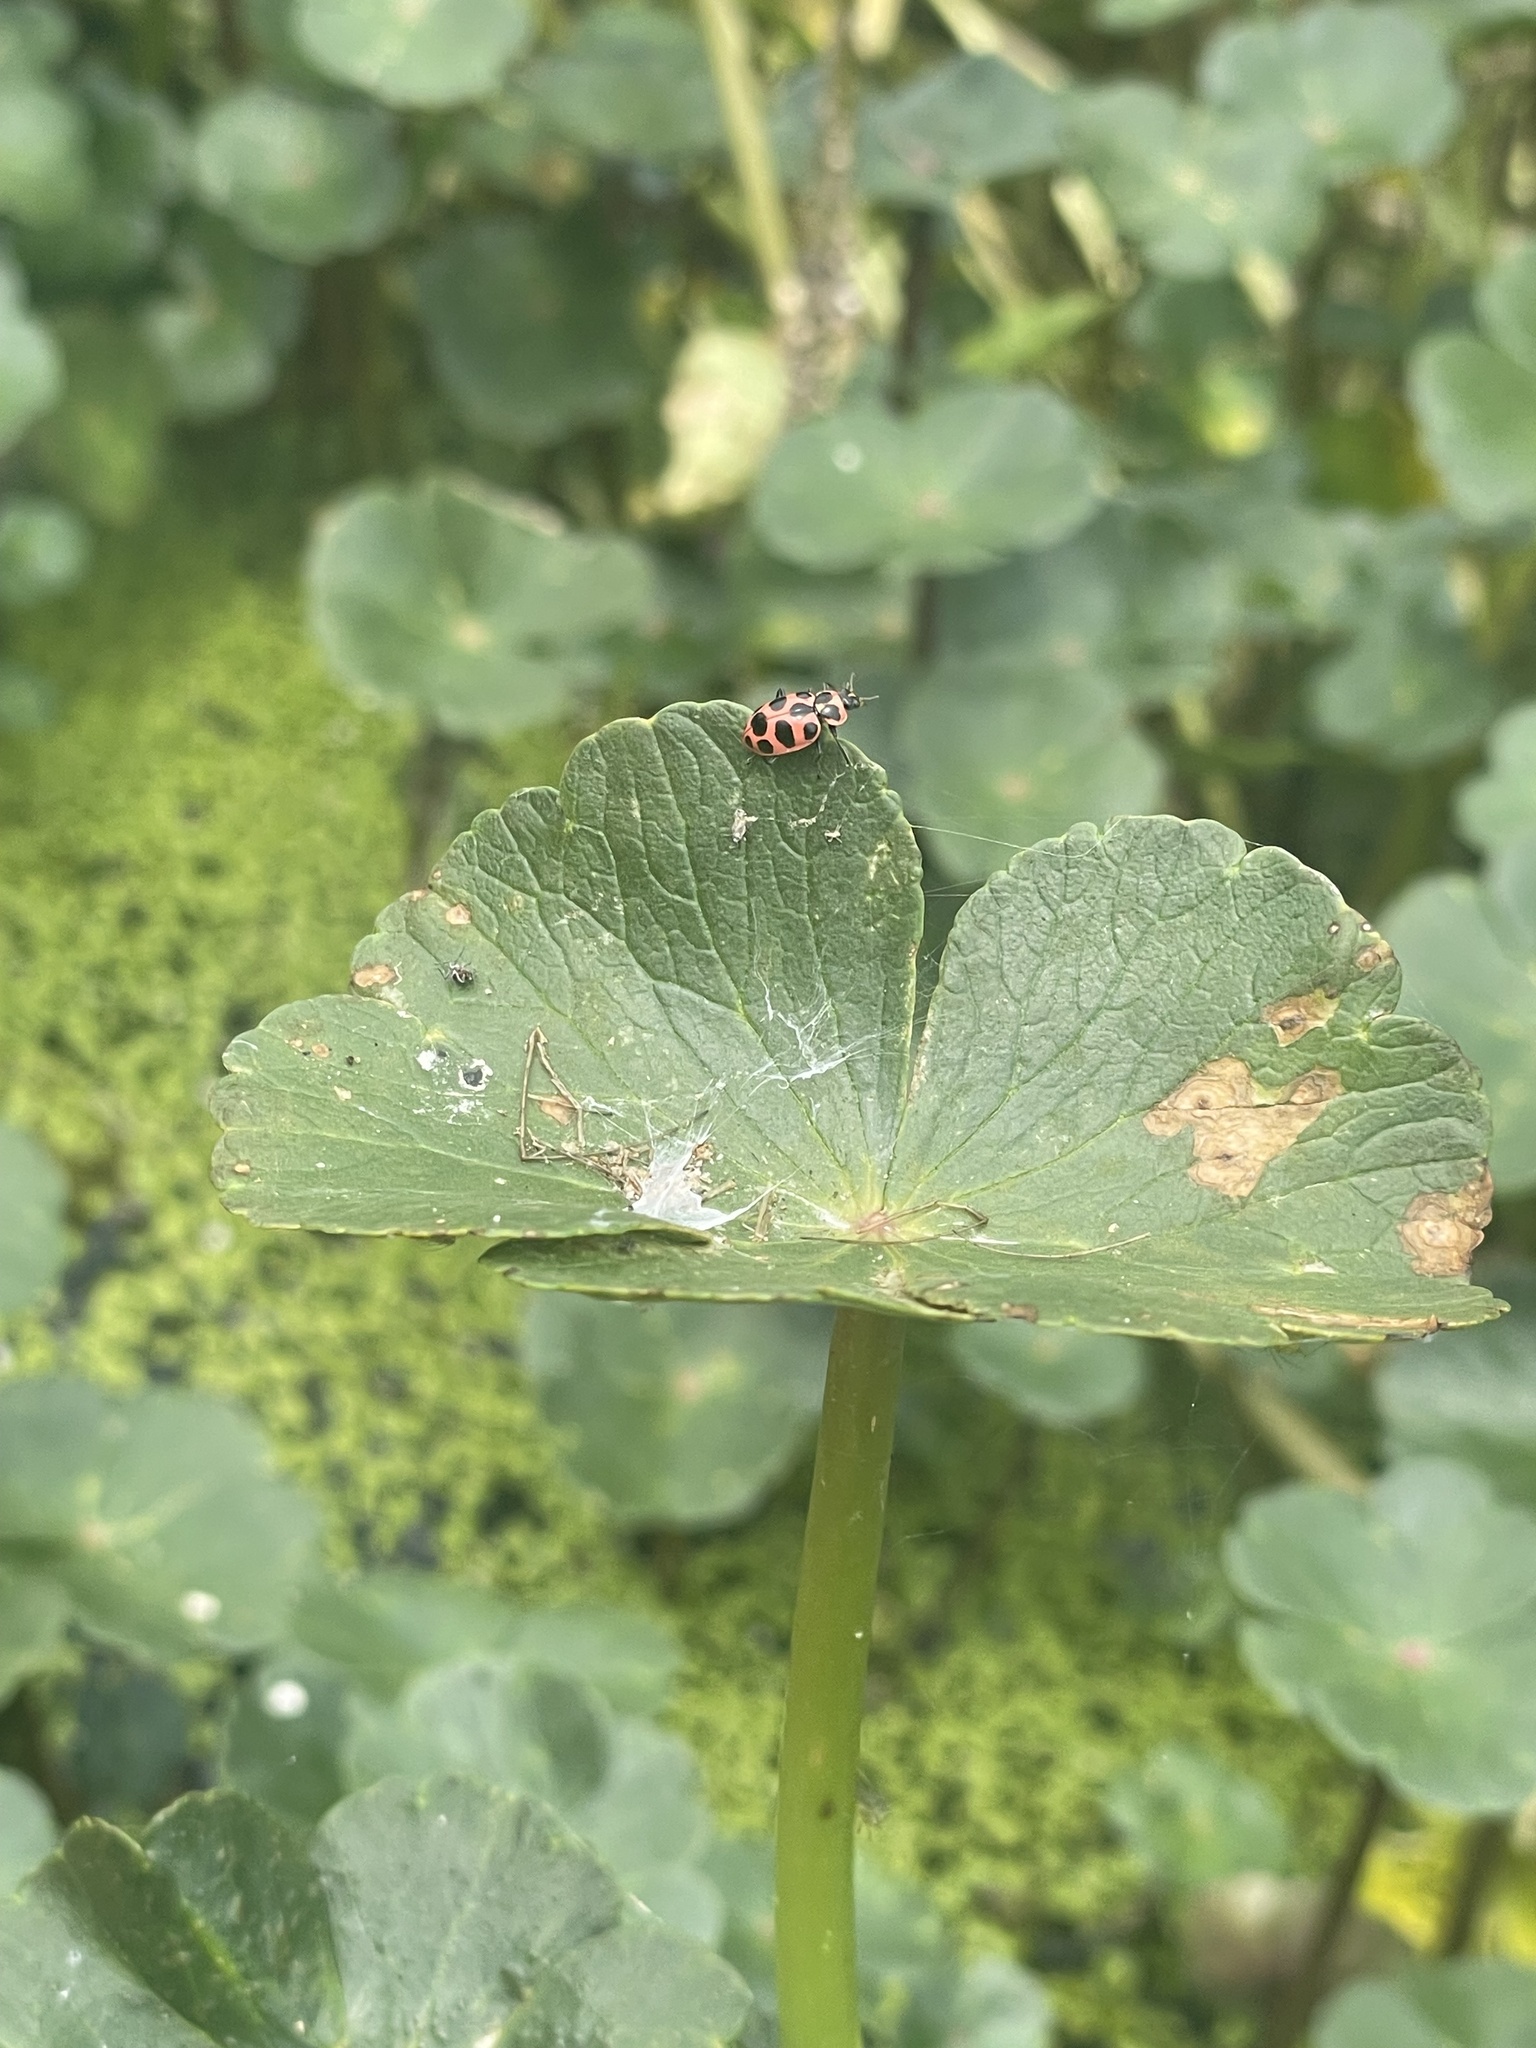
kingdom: Animalia
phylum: Arthropoda
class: Insecta
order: Coleoptera
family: Coccinellidae
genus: Coleomegilla
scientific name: Coleomegilla maculata
